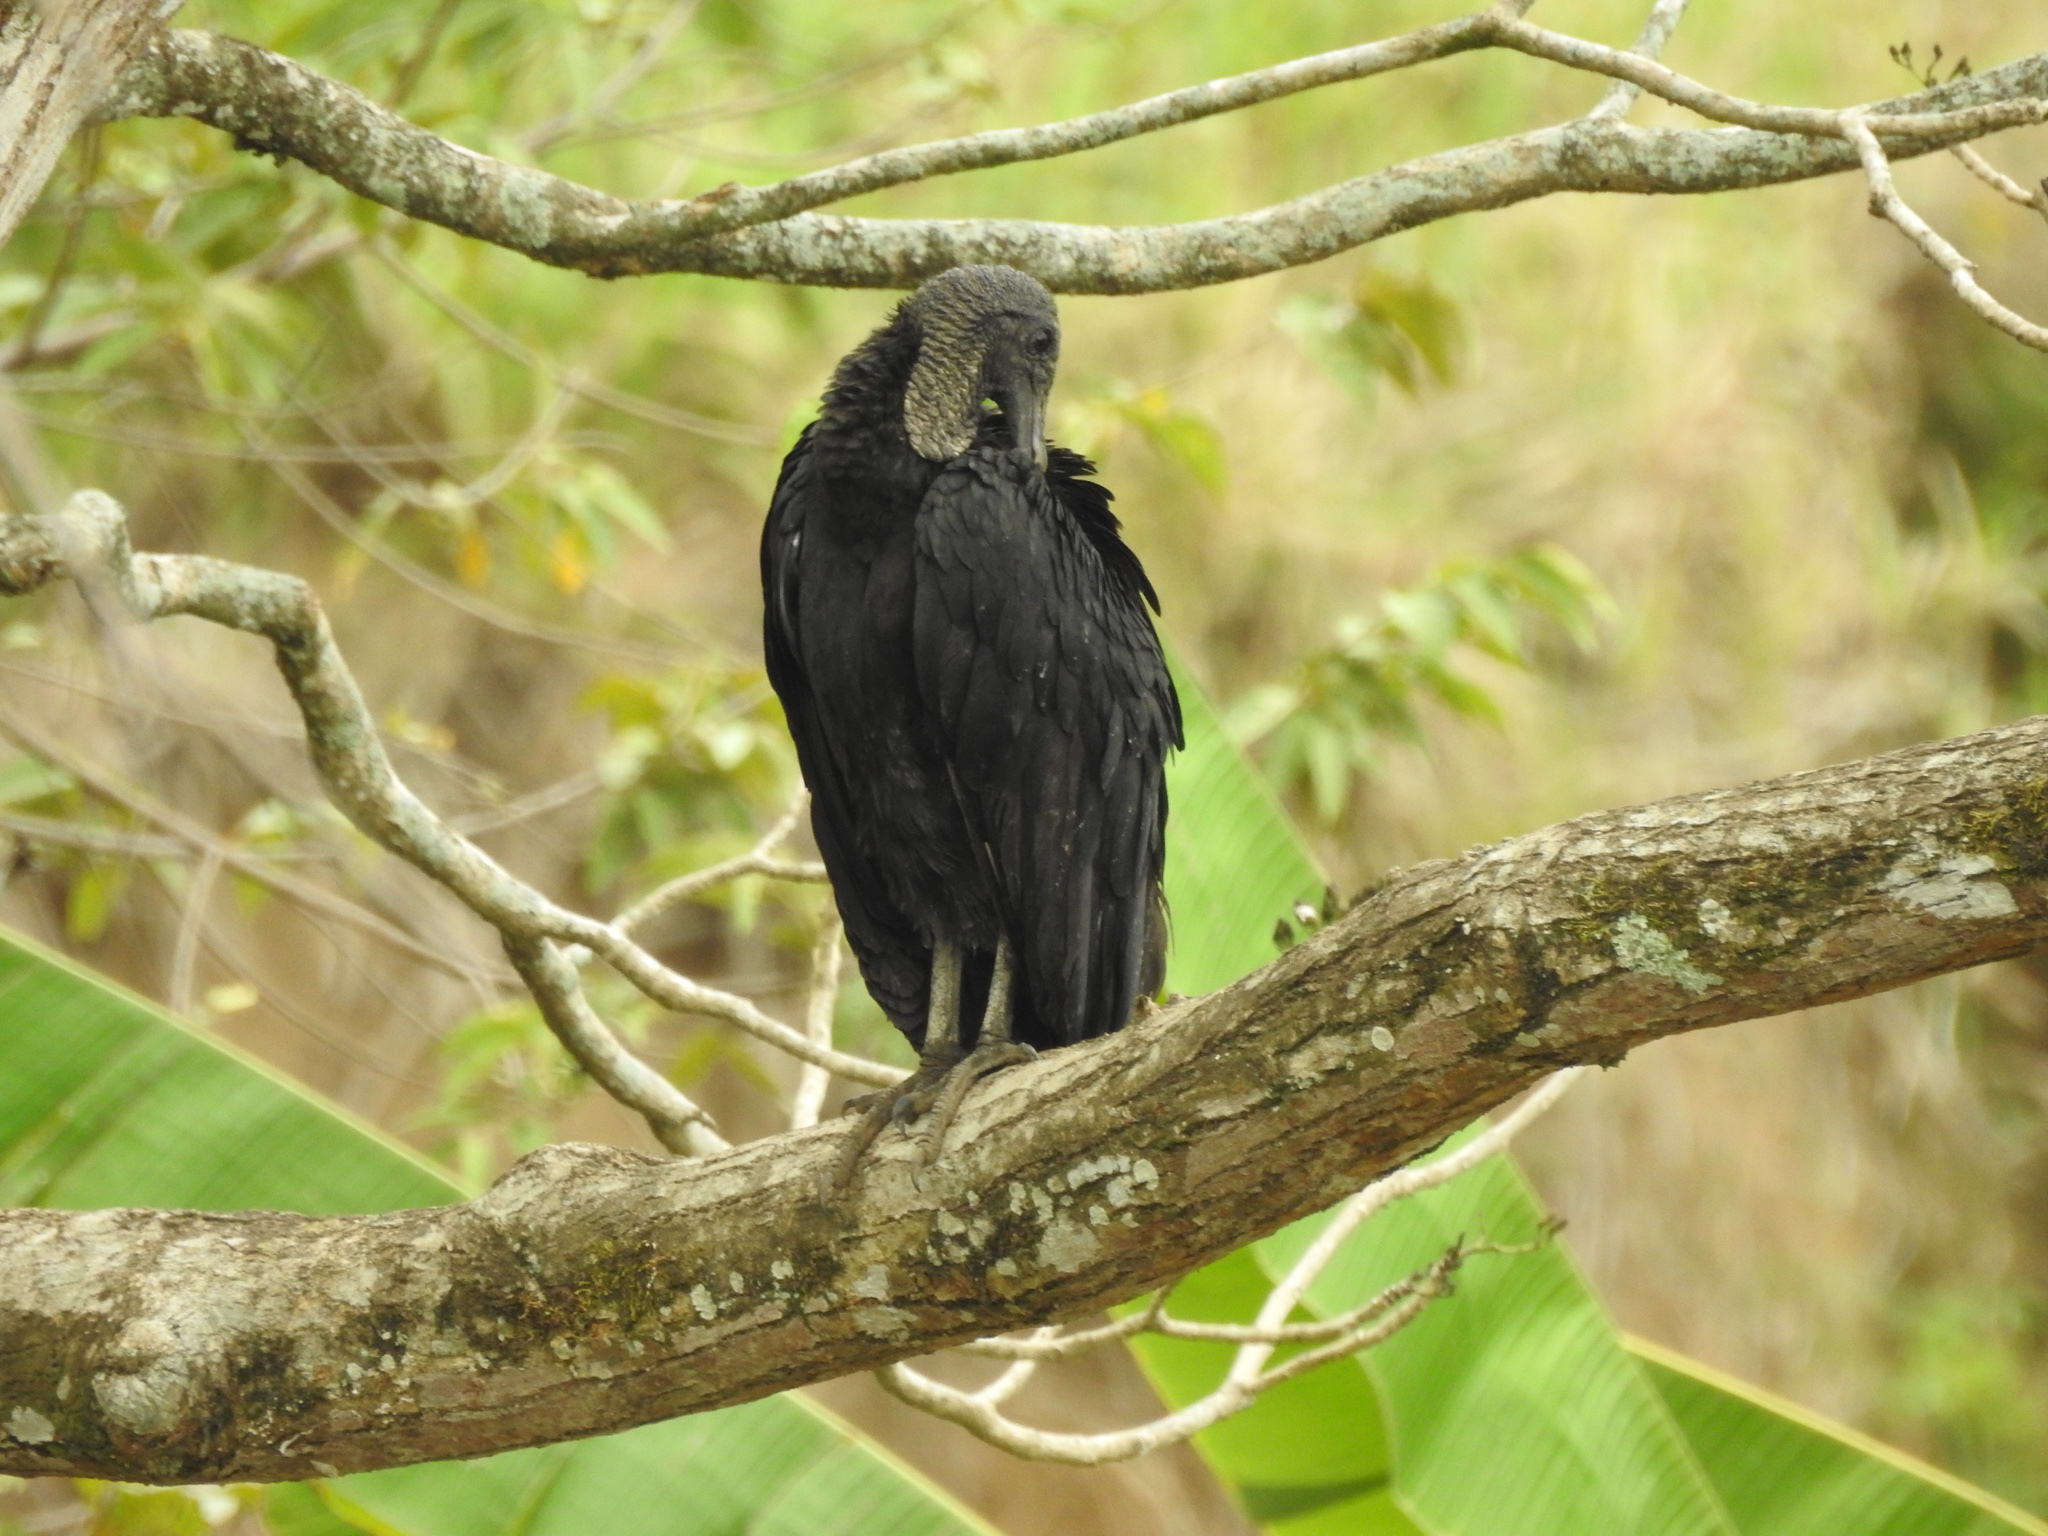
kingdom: Animalia
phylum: Chordata
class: Aves
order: Accipitriformes
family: Cathartidae
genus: Coragyps
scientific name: Coragyps atratus
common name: Black vulture
